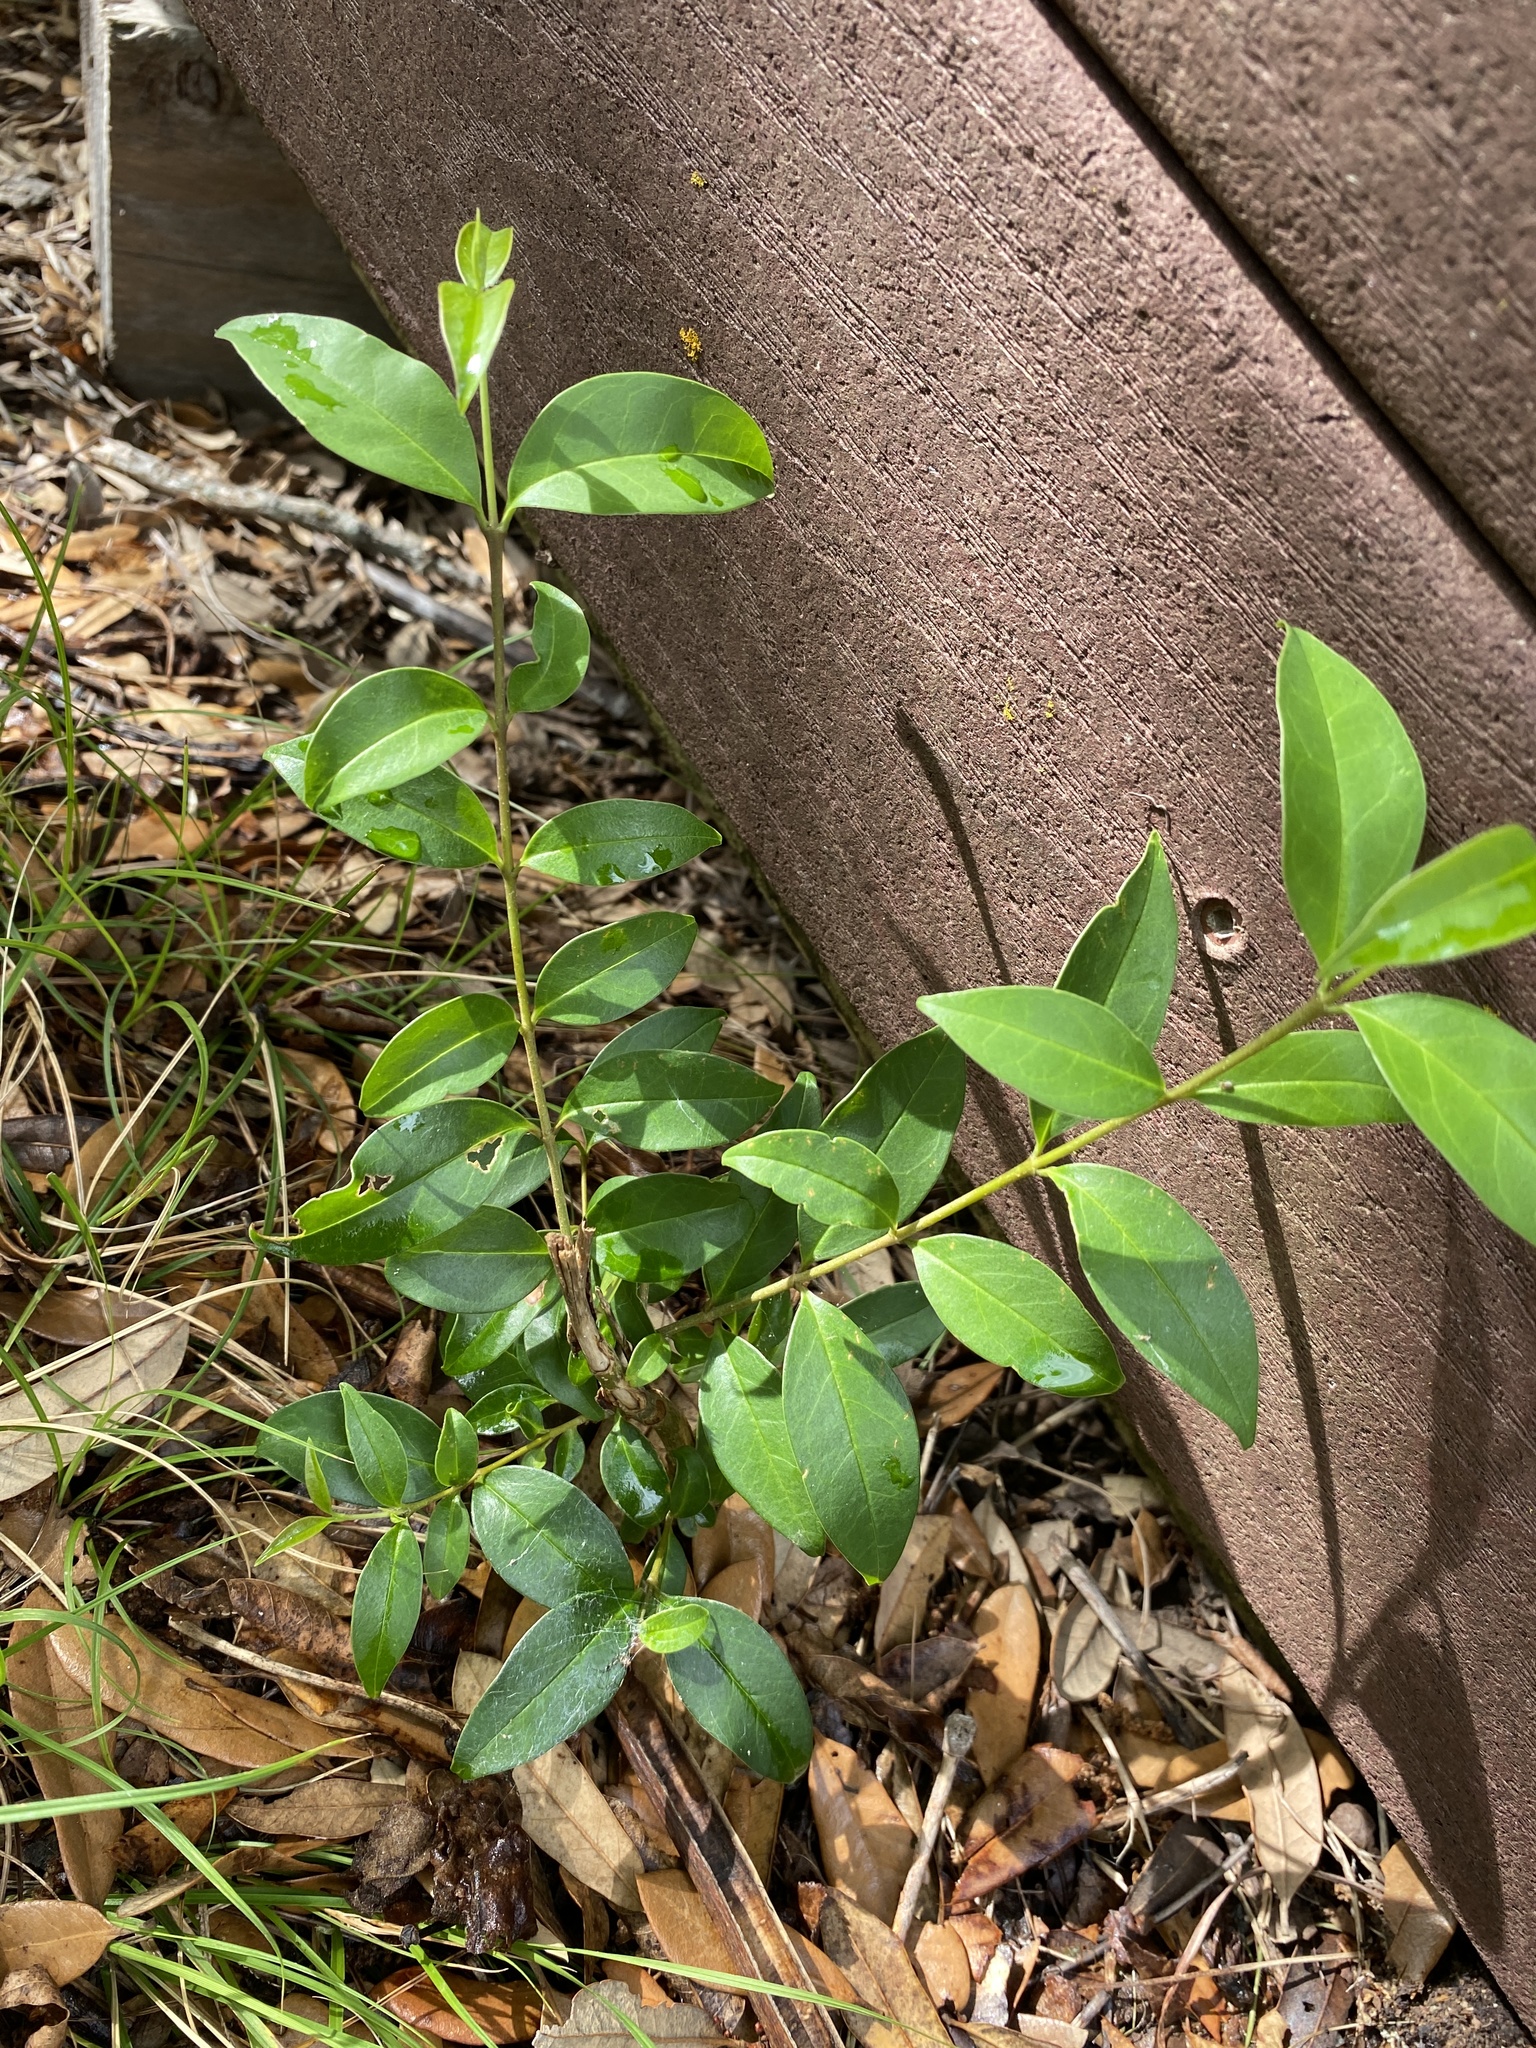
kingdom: Plantae
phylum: Tracheophyta
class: Magnoliopsida
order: Lamiales
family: Oleaceae
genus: Ligustrum
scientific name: Ligustrum lucidum
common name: Glossy privet
